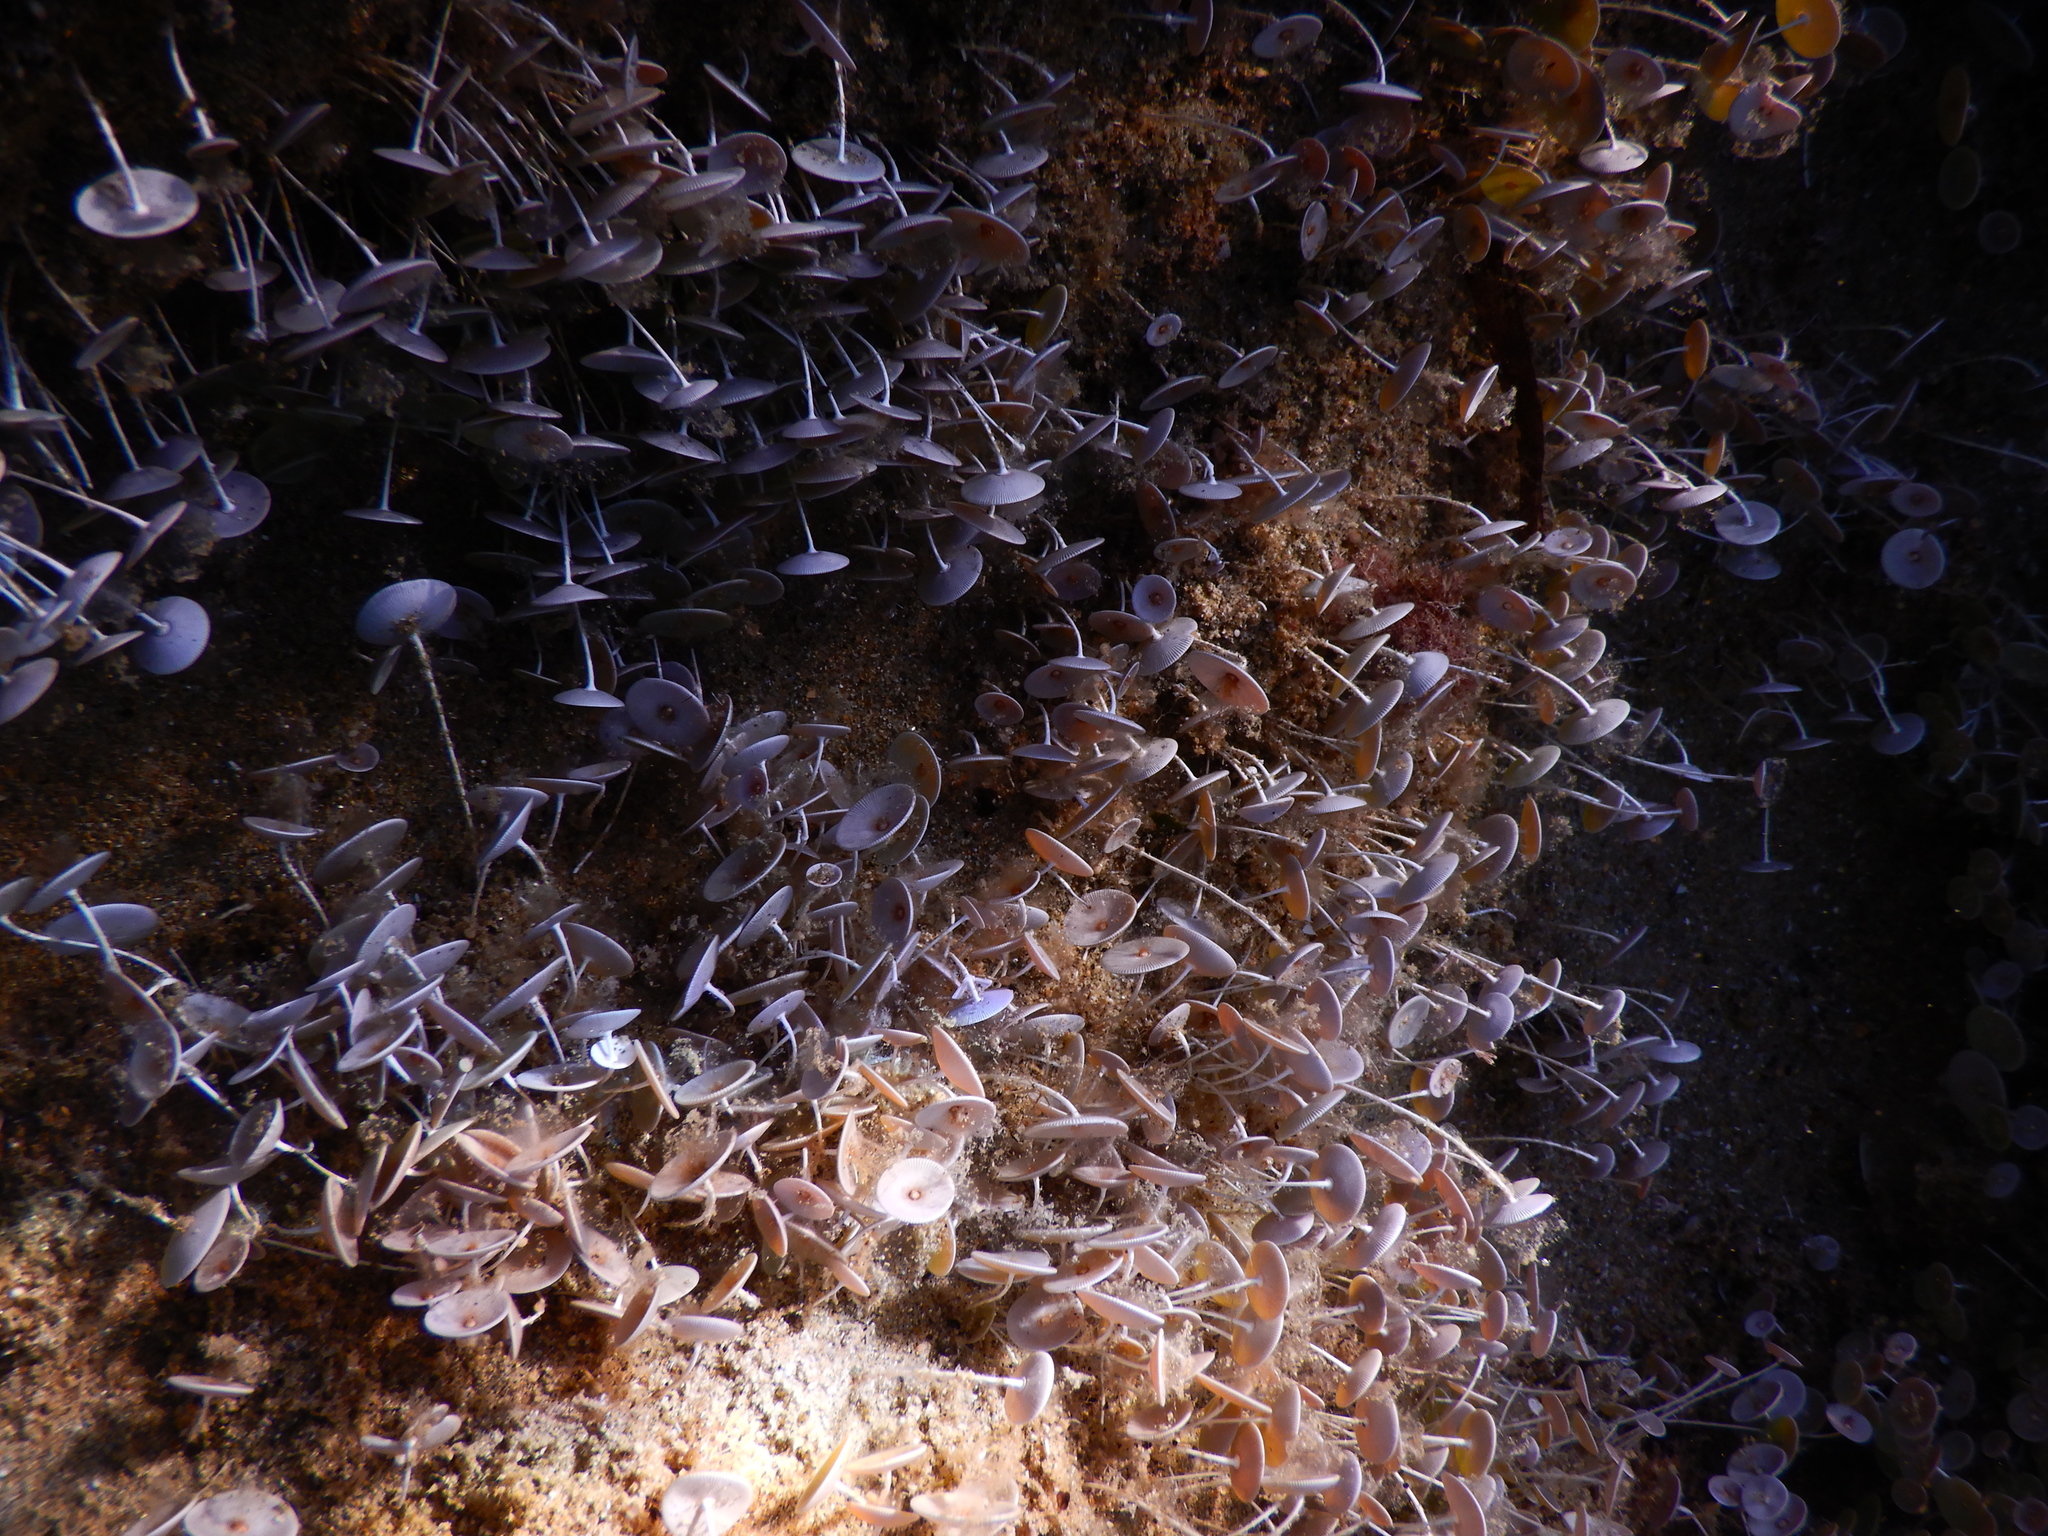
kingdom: Plantae
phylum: Chlorophyta
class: Ulvophyceae
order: Dasycladales
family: Polyphysaceae
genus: Acetabularia
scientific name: Acetabularia acetabulum
